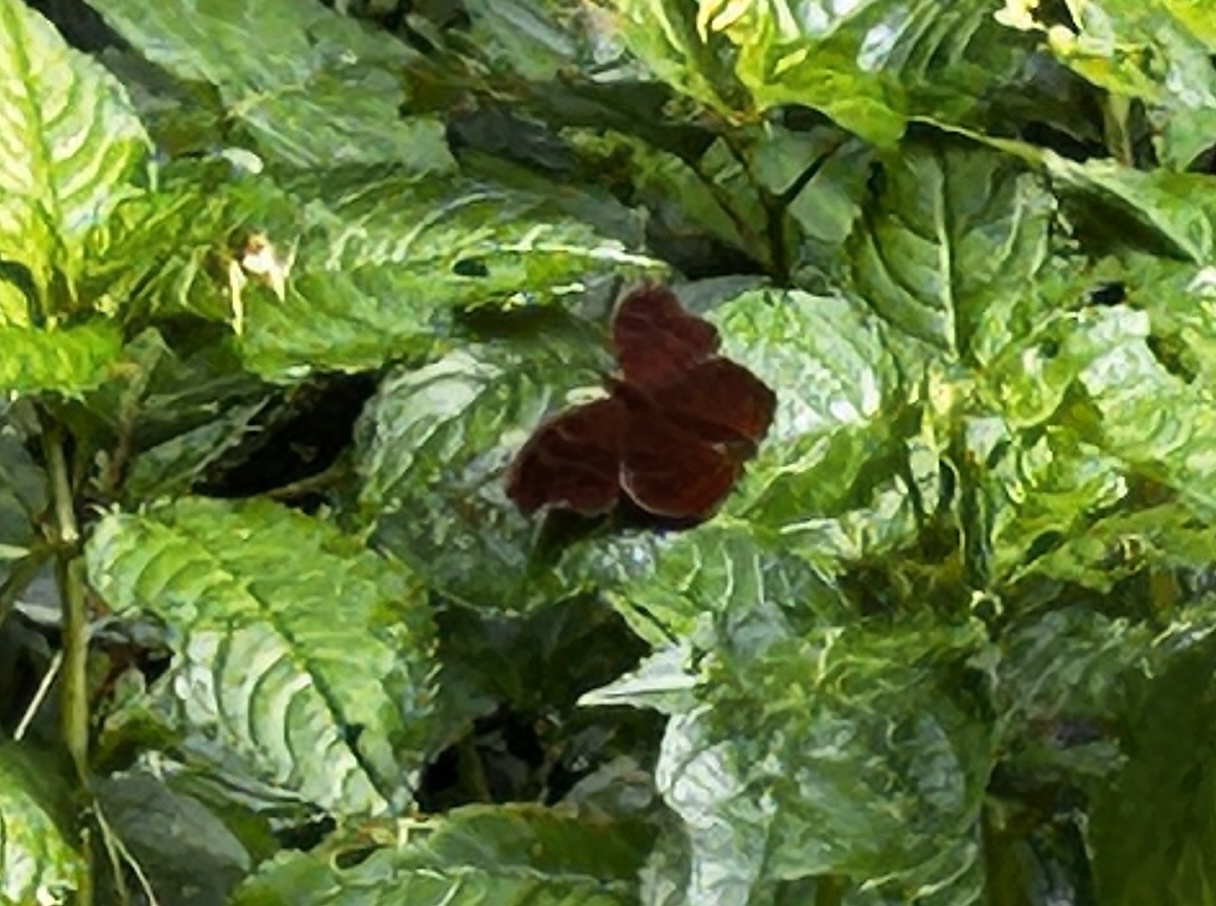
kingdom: Animalia
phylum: Arthropoda
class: Insecta
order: Lepidoptera
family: Nymphalidae
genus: Junonia
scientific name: Junonia stygia
